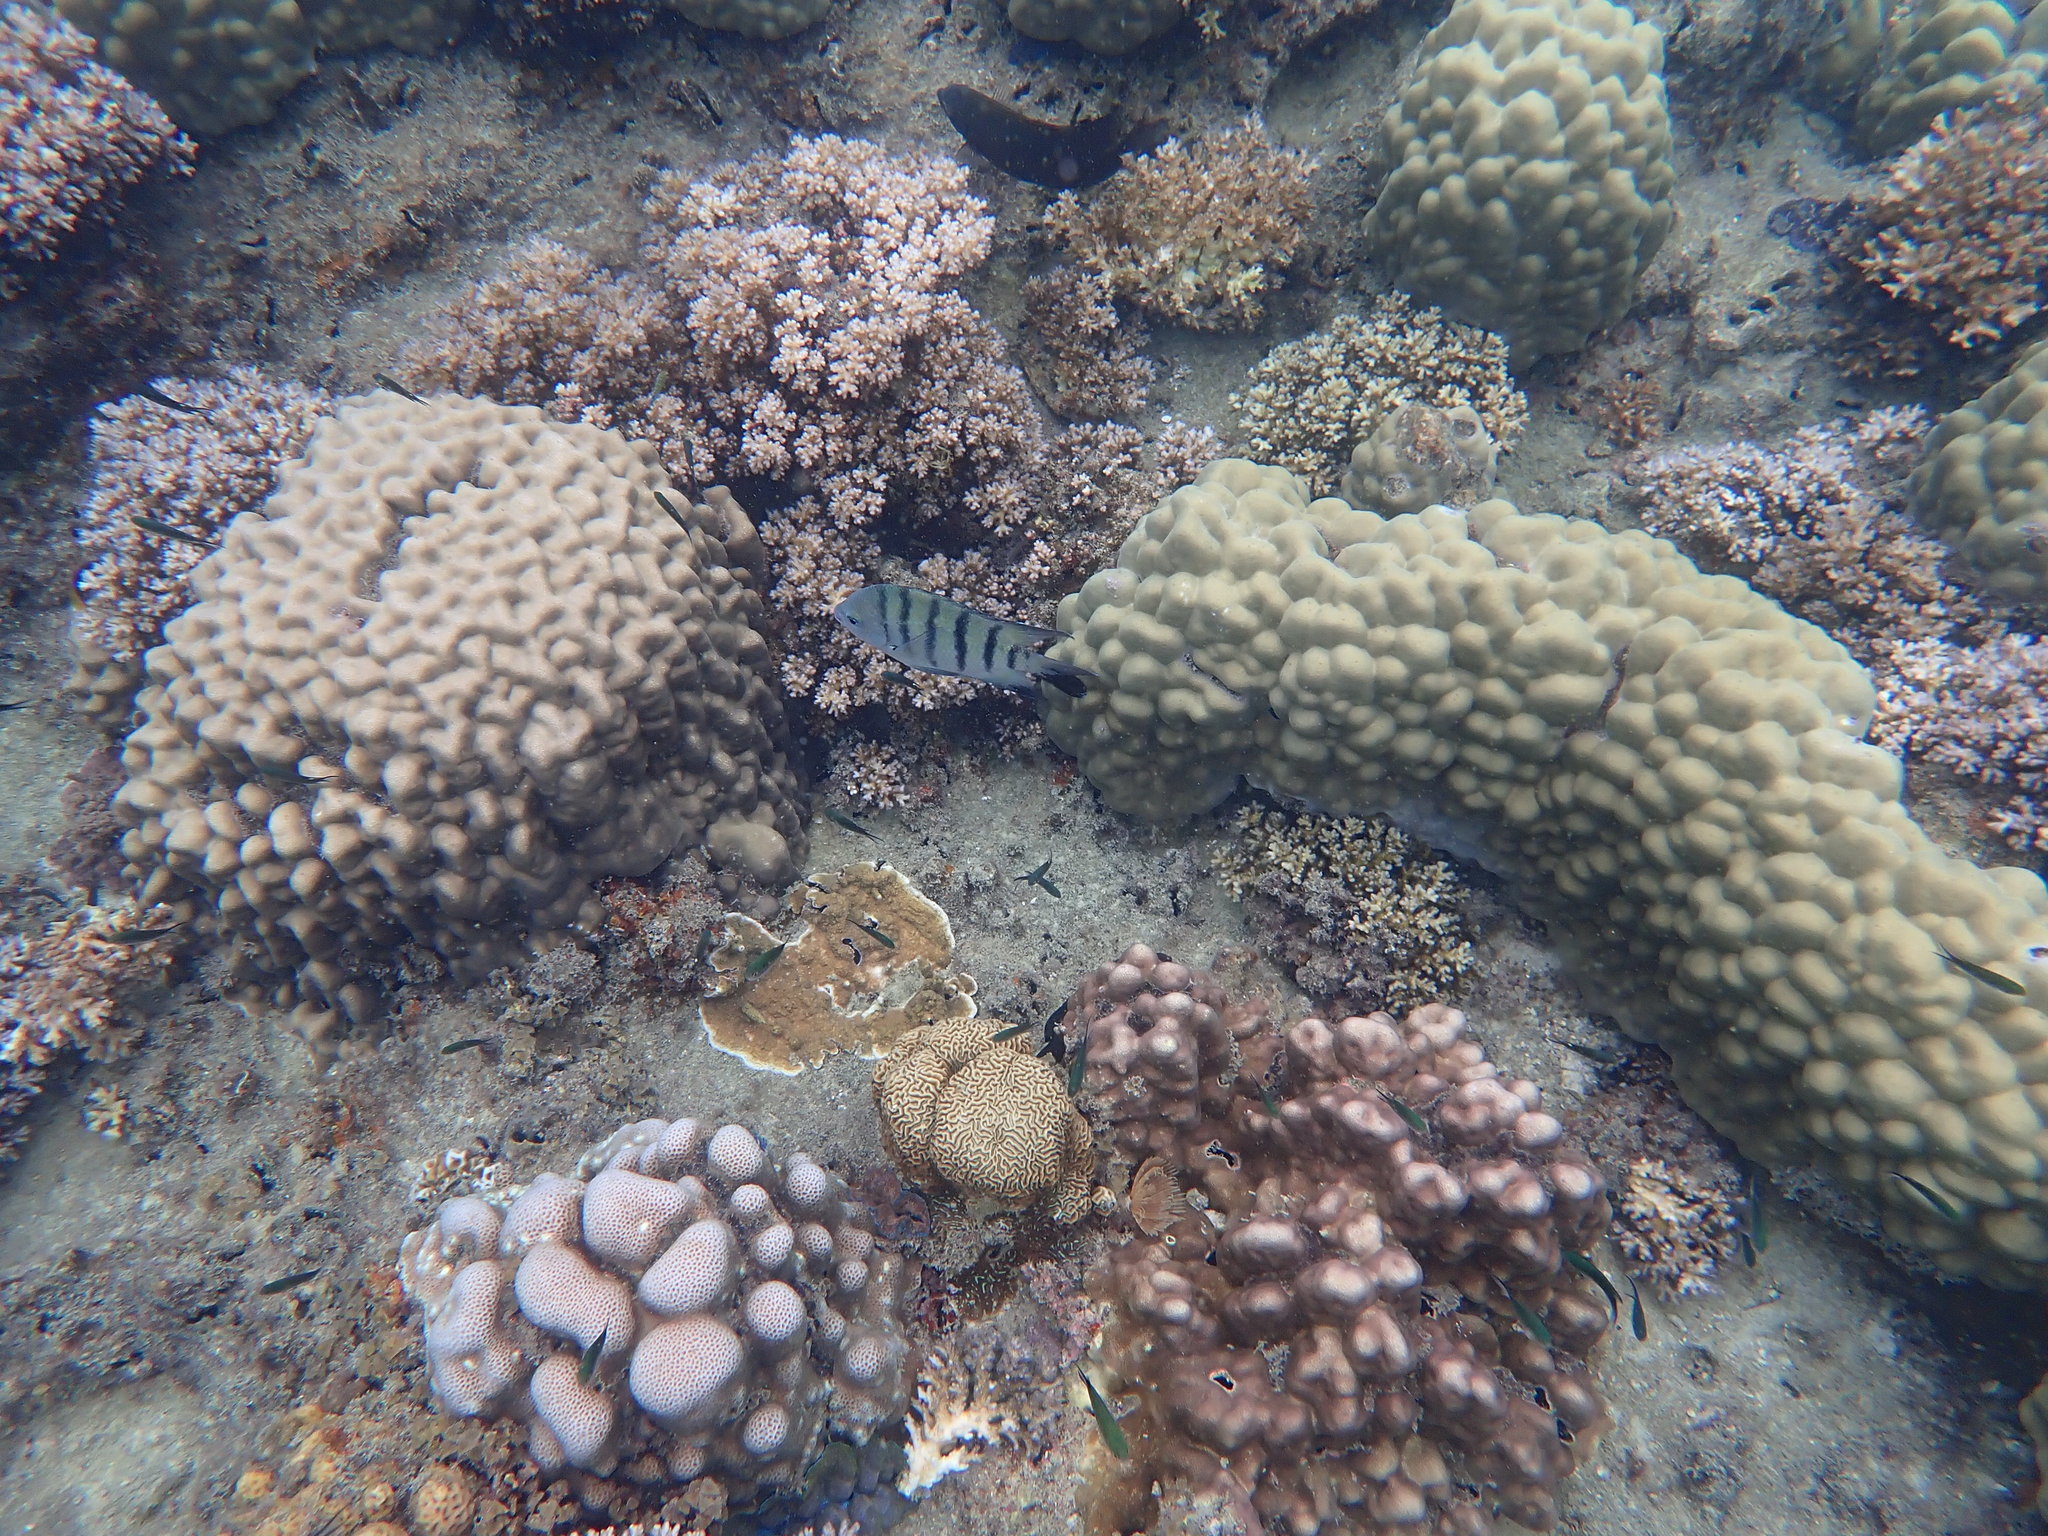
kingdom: Animalia
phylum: Chordata
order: Perciformes
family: Pomacentridae
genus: Abudefduf
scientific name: Abudefduf bengalensis
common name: Bengal sergeant
